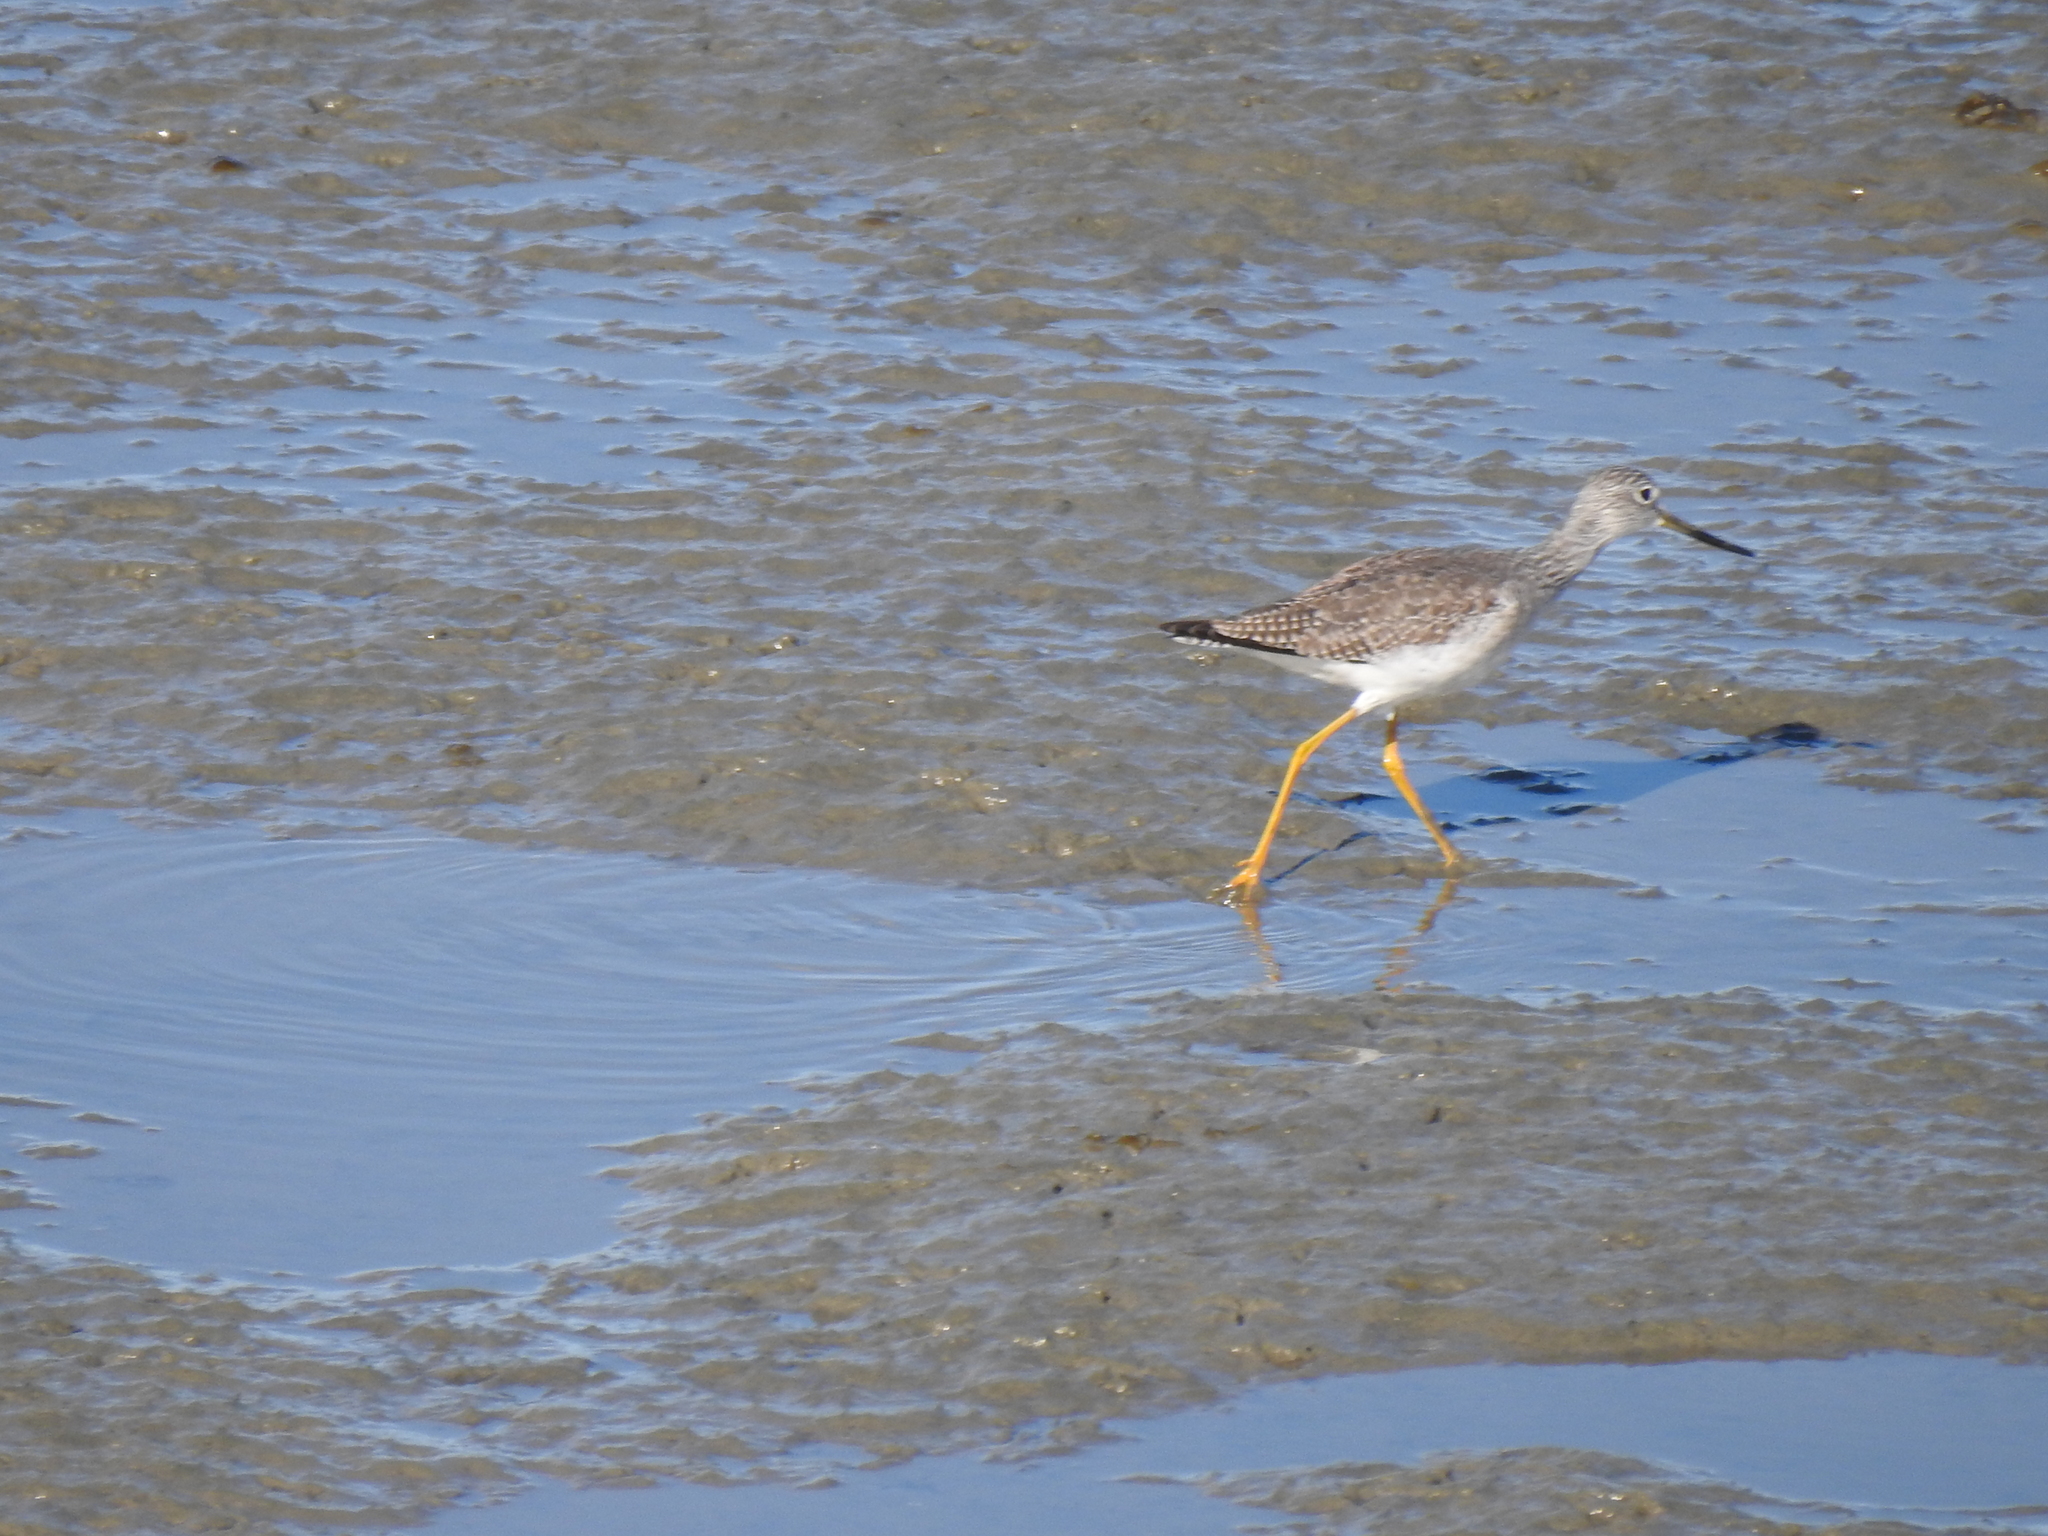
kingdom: Animalia
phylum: Chordata
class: Aves
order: Charadriiformes
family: Scolopacidae
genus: Tringa
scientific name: Tringa melanoleuca
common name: Greater yellowlegs
